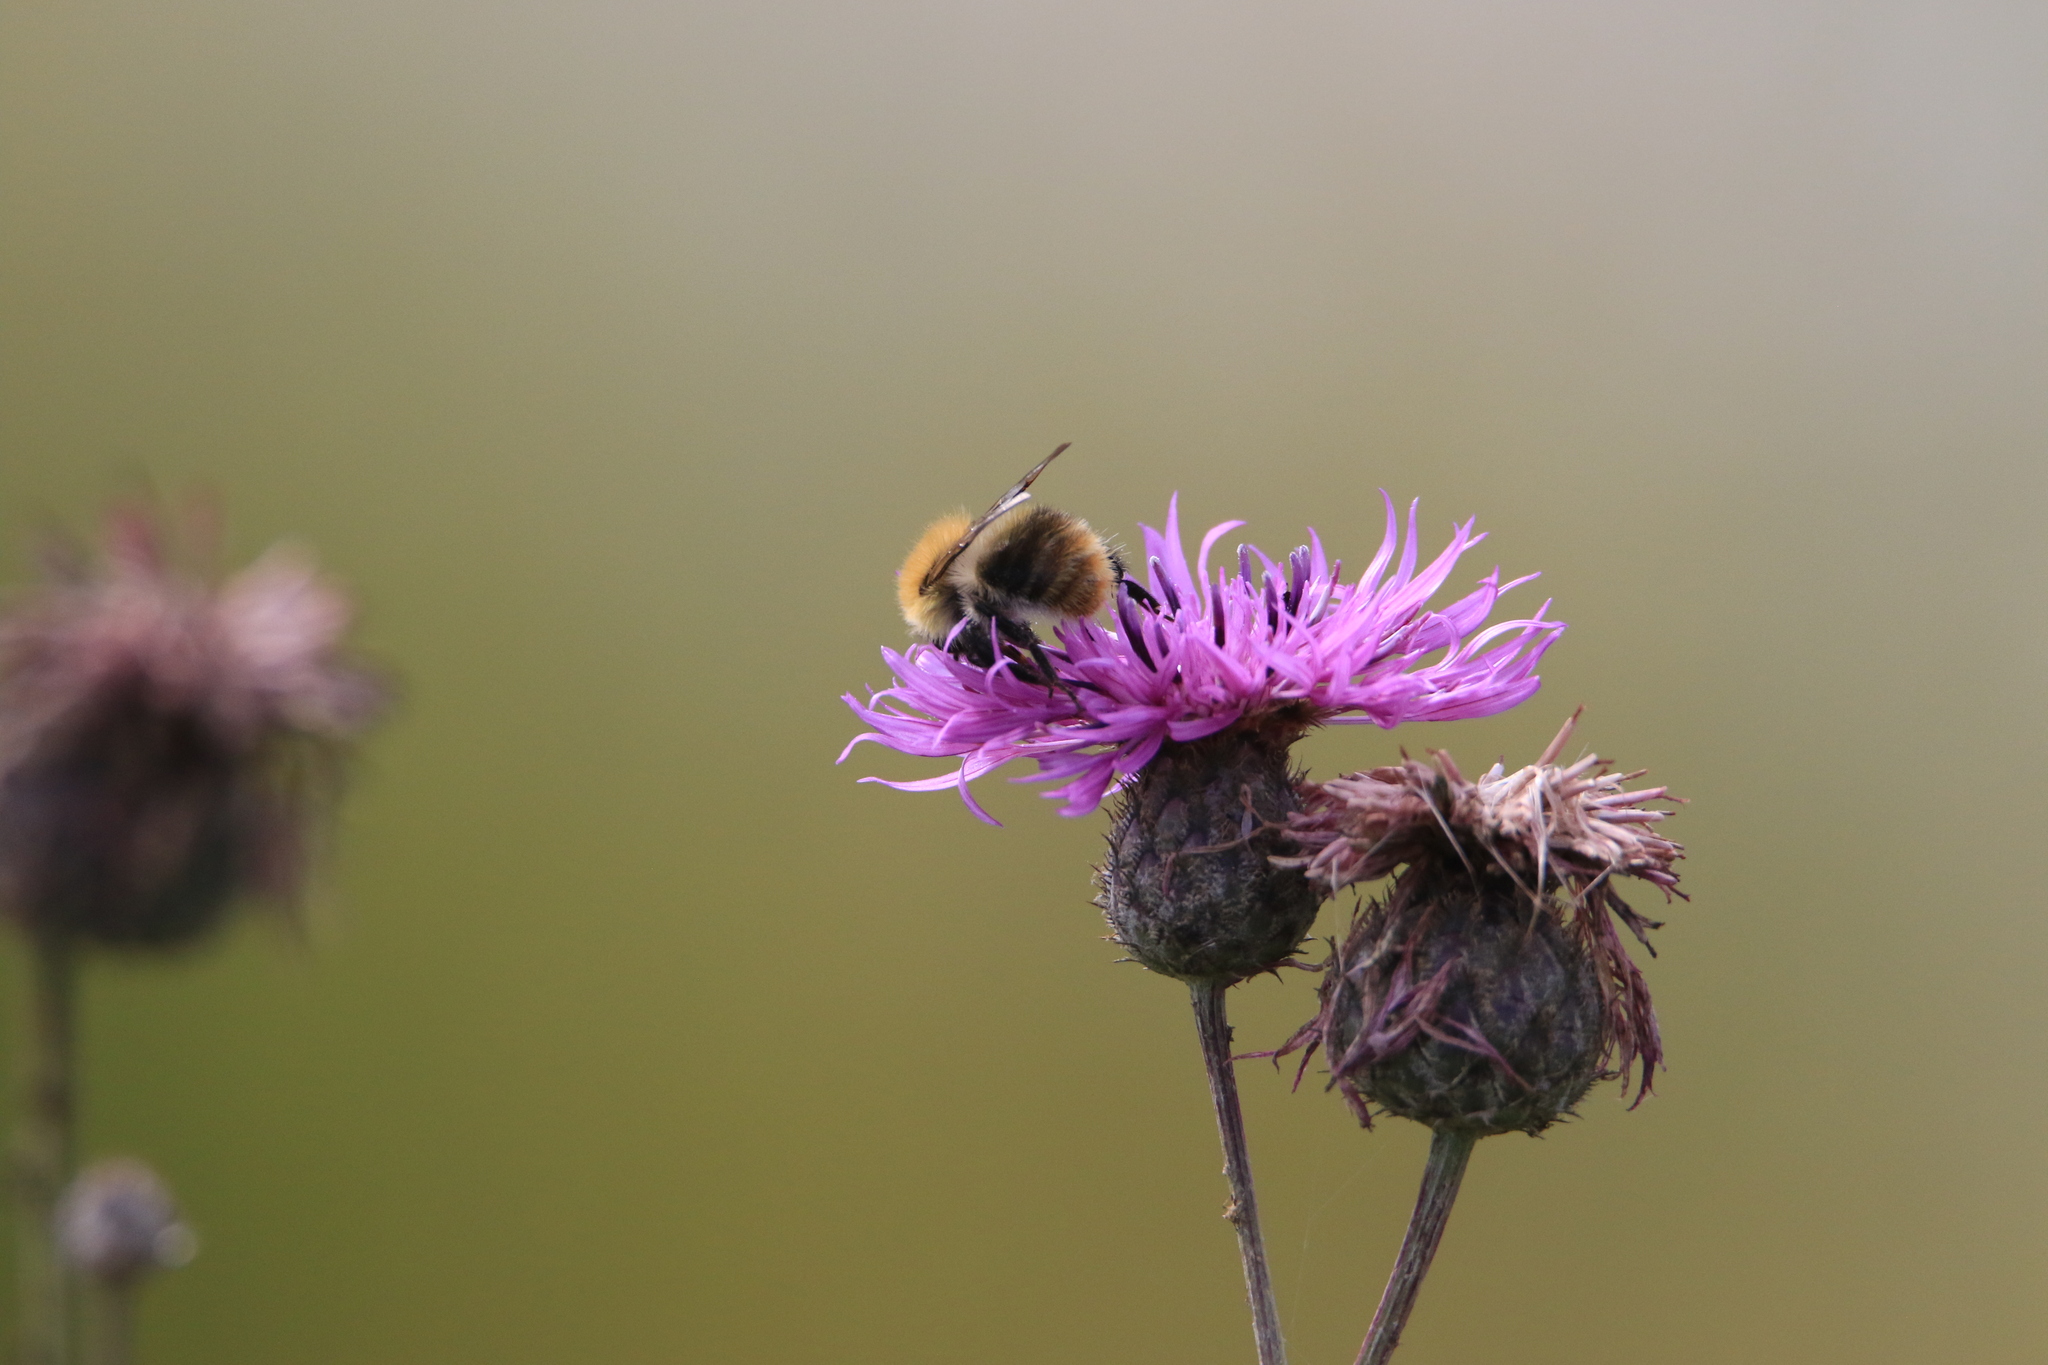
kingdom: Animalia
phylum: Arthropoda
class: Insecta
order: Hymenoptera
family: Apidae
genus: Bombus
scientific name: Bombus pascuorum
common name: Common carder bee
